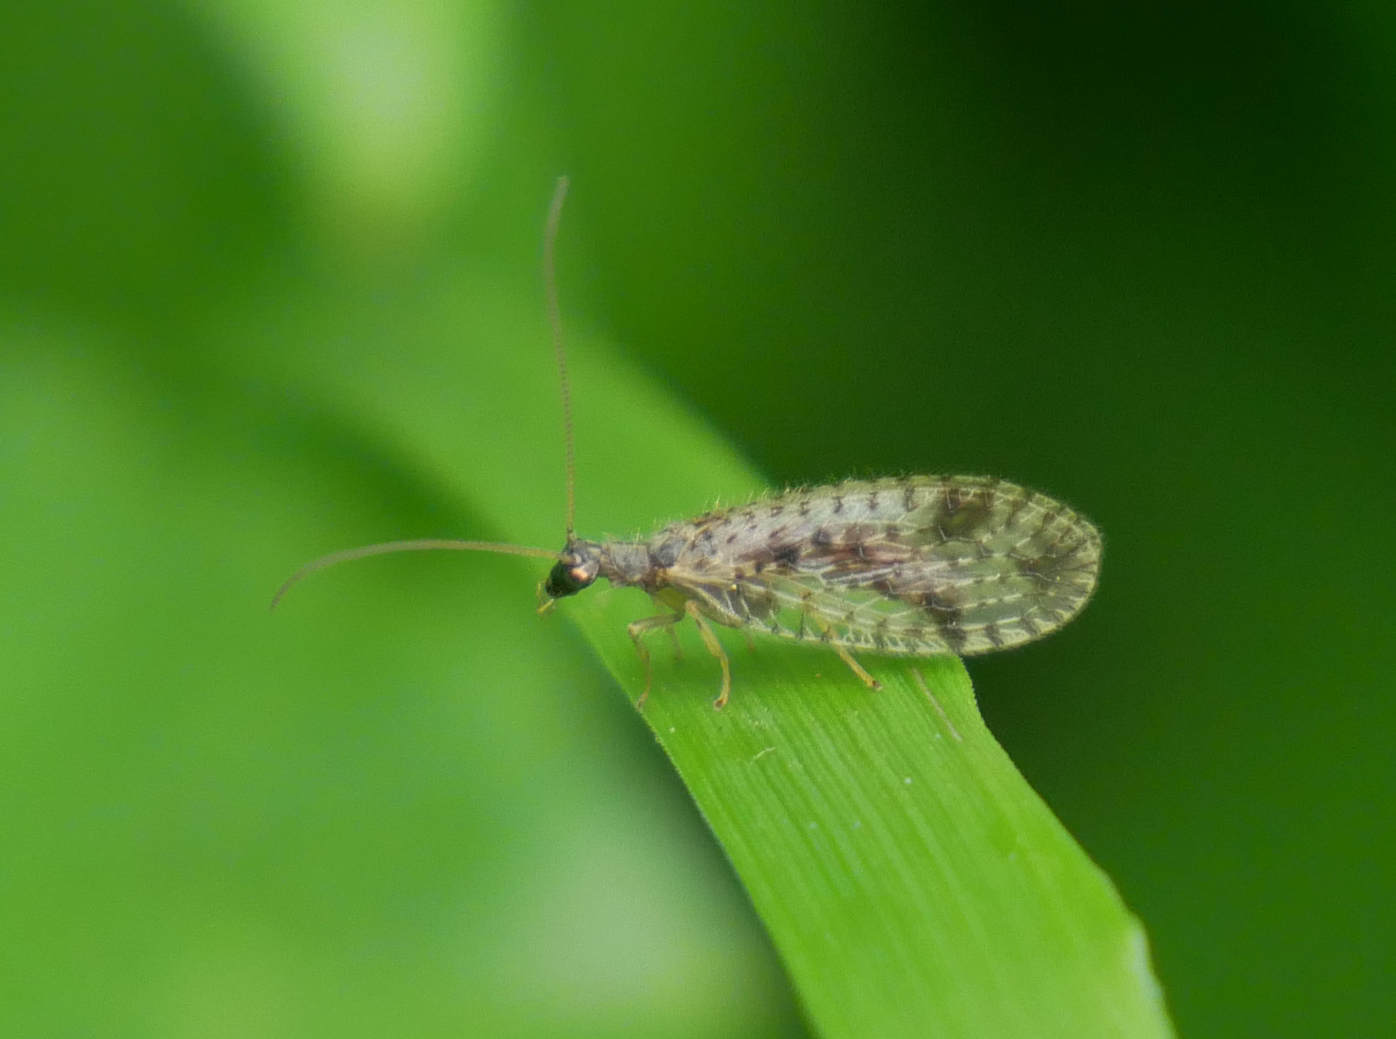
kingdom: Animalia
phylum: Arthropoda
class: Insecta
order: Neuroptera
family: Hemerobiidae
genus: Micromus
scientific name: Micromus variegatus
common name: Brown lacewing
